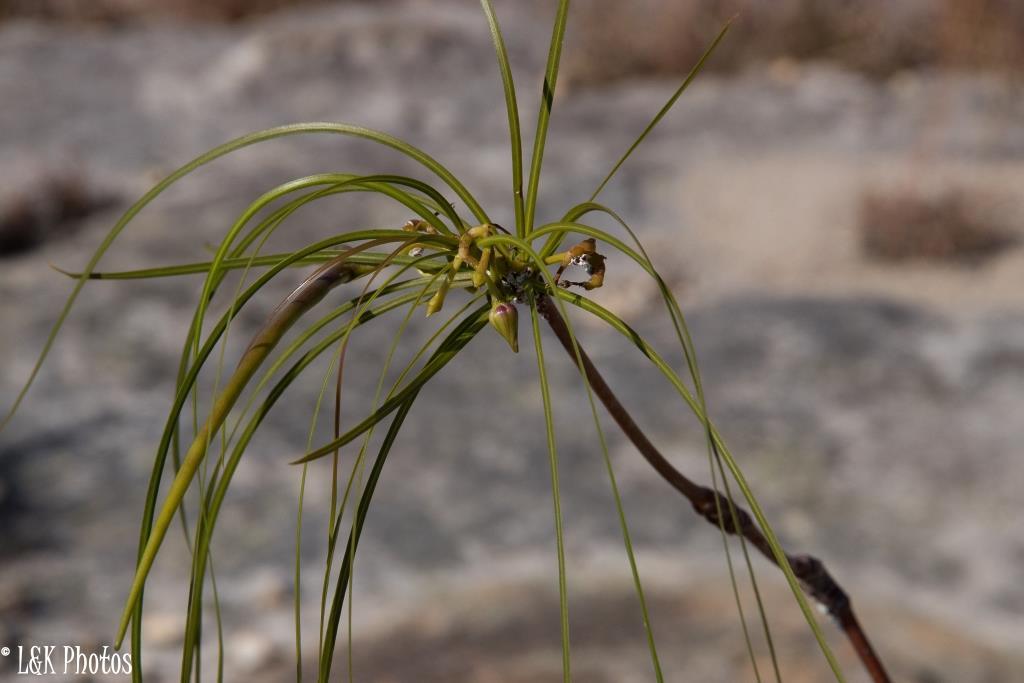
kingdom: Plantae
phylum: Tracheophyta
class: Magnoliopsida
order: Gentianales
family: Apocynaceae
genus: Ischnolepis
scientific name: Ischnolepis graminifolia
